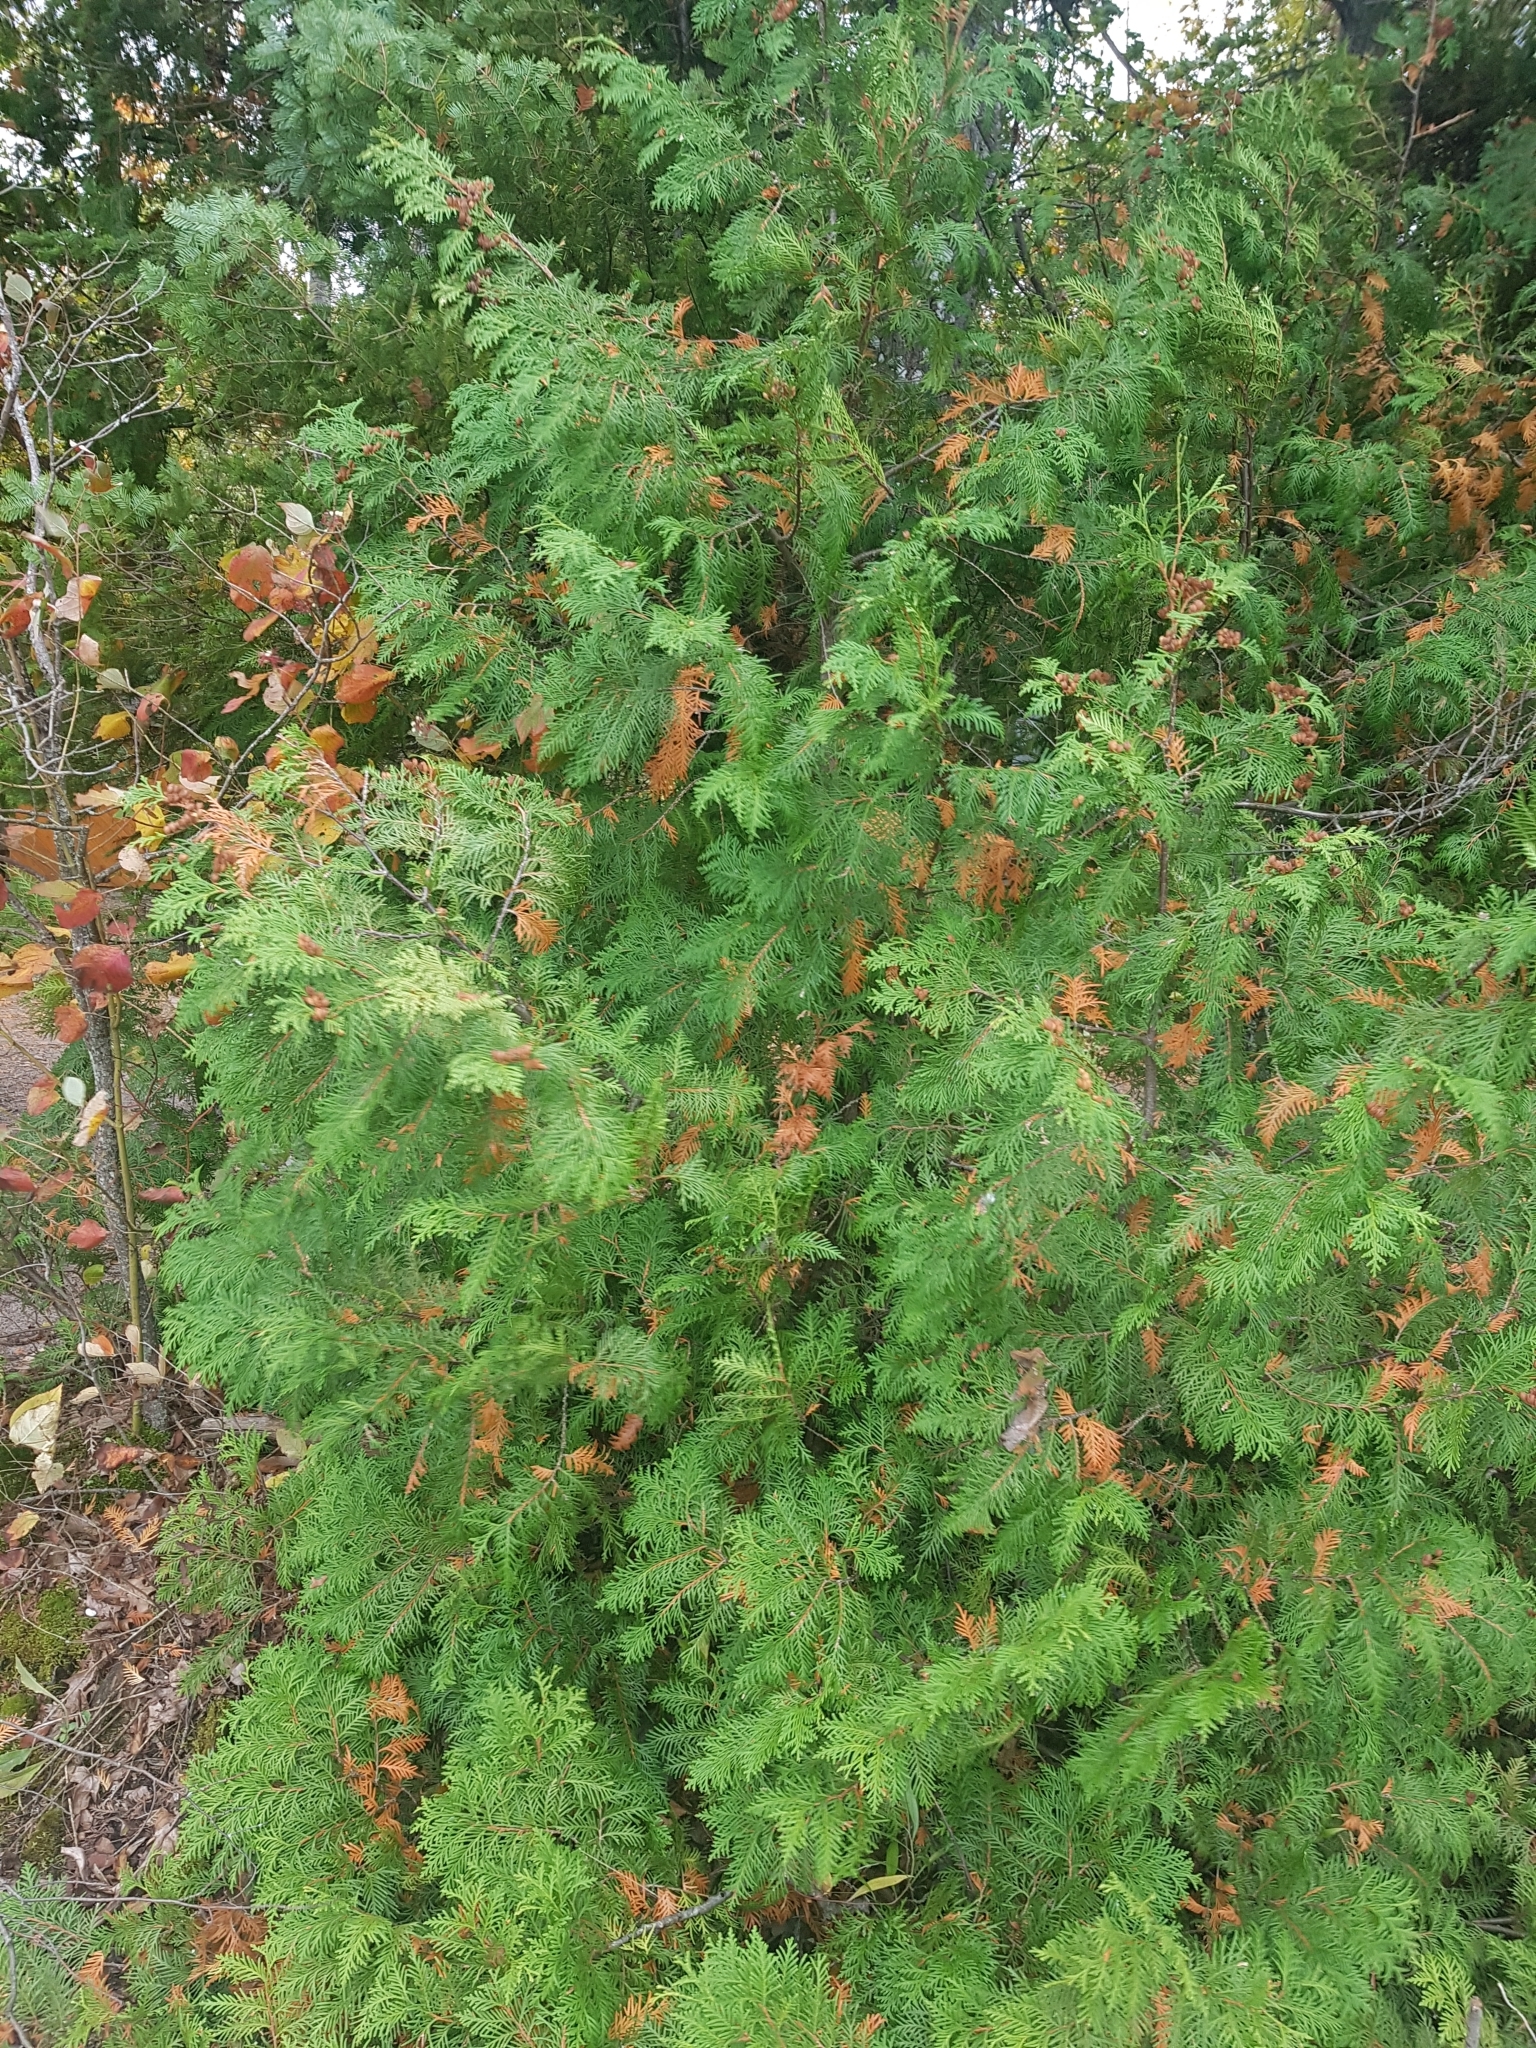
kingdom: Plantae
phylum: Tracheophyta
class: Pinopsida
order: Pinales
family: Cupressaceae
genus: Thuja
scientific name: Thuja occidentalis
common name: Northern white-cedar
